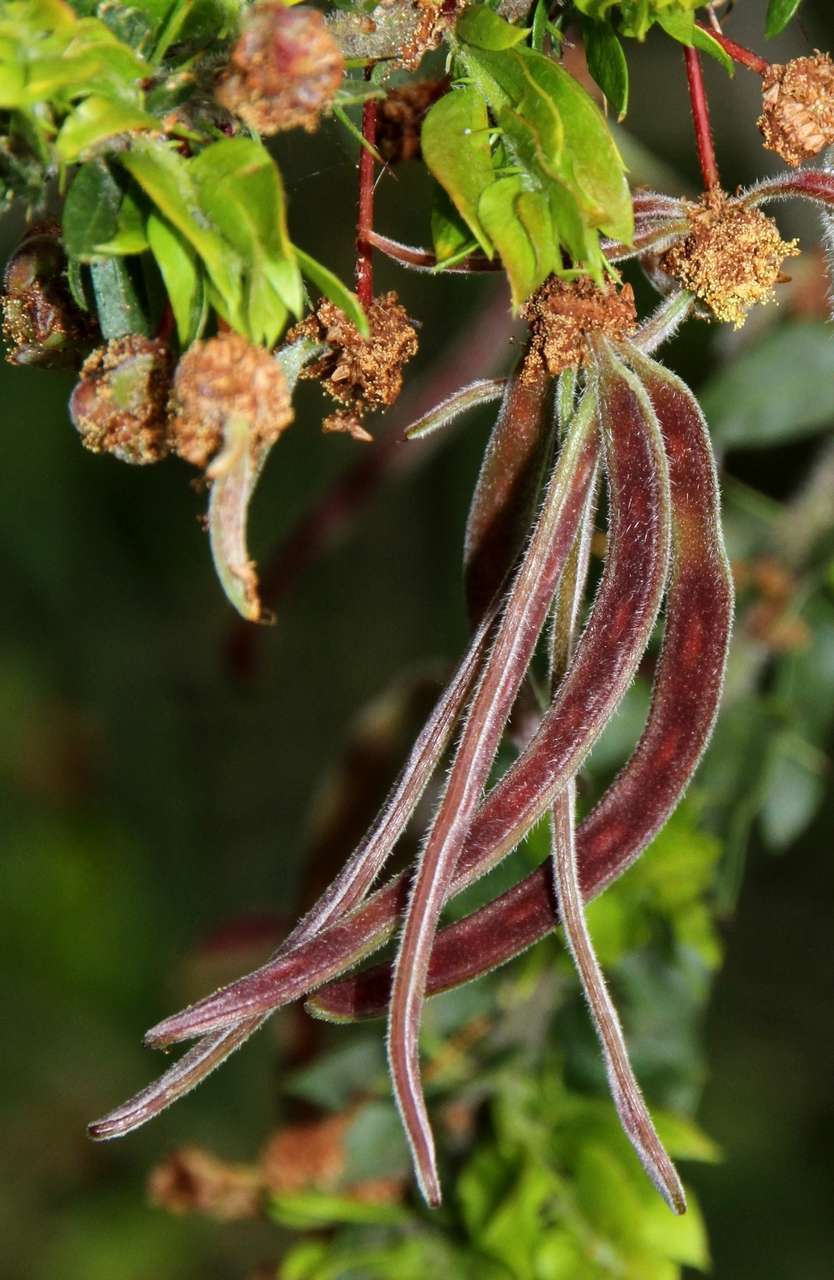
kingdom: Plantae
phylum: Tracheophyta
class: Magnoliopsida
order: Fabales
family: Fabaceae
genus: Acacia
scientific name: Acacia paradoxa
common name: Paradox acacia
